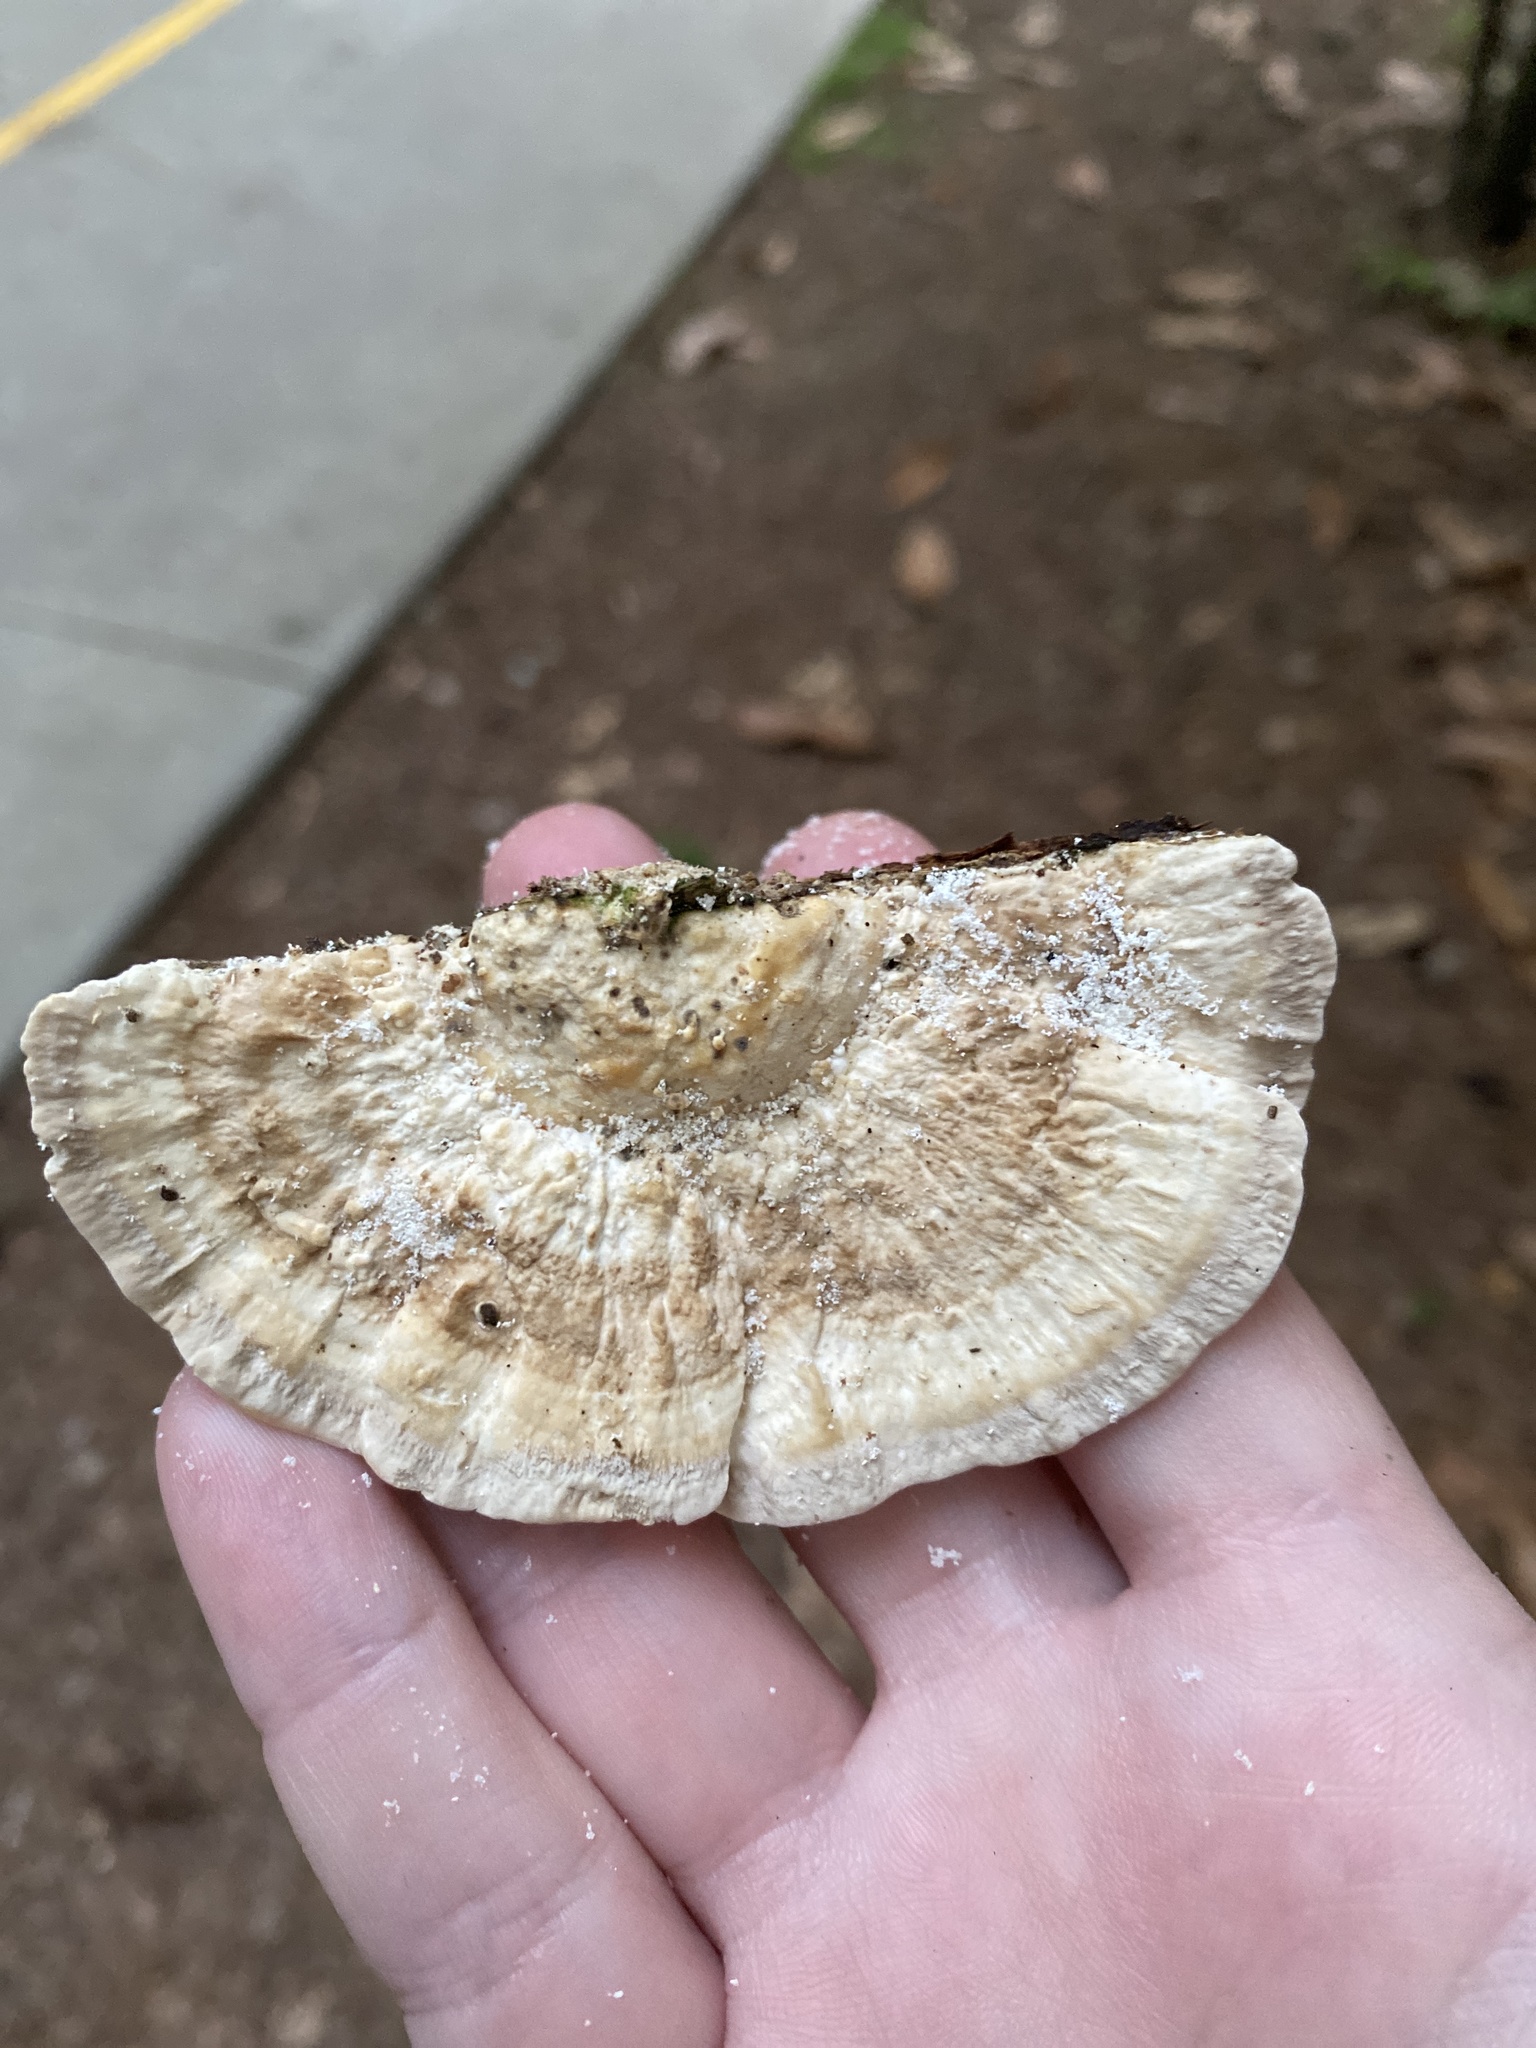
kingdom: Fungi
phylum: Basidiomycota
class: Agaricomycetes
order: Polyporales
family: Polyporaceae
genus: Trametes
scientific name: Trametes lactinea
